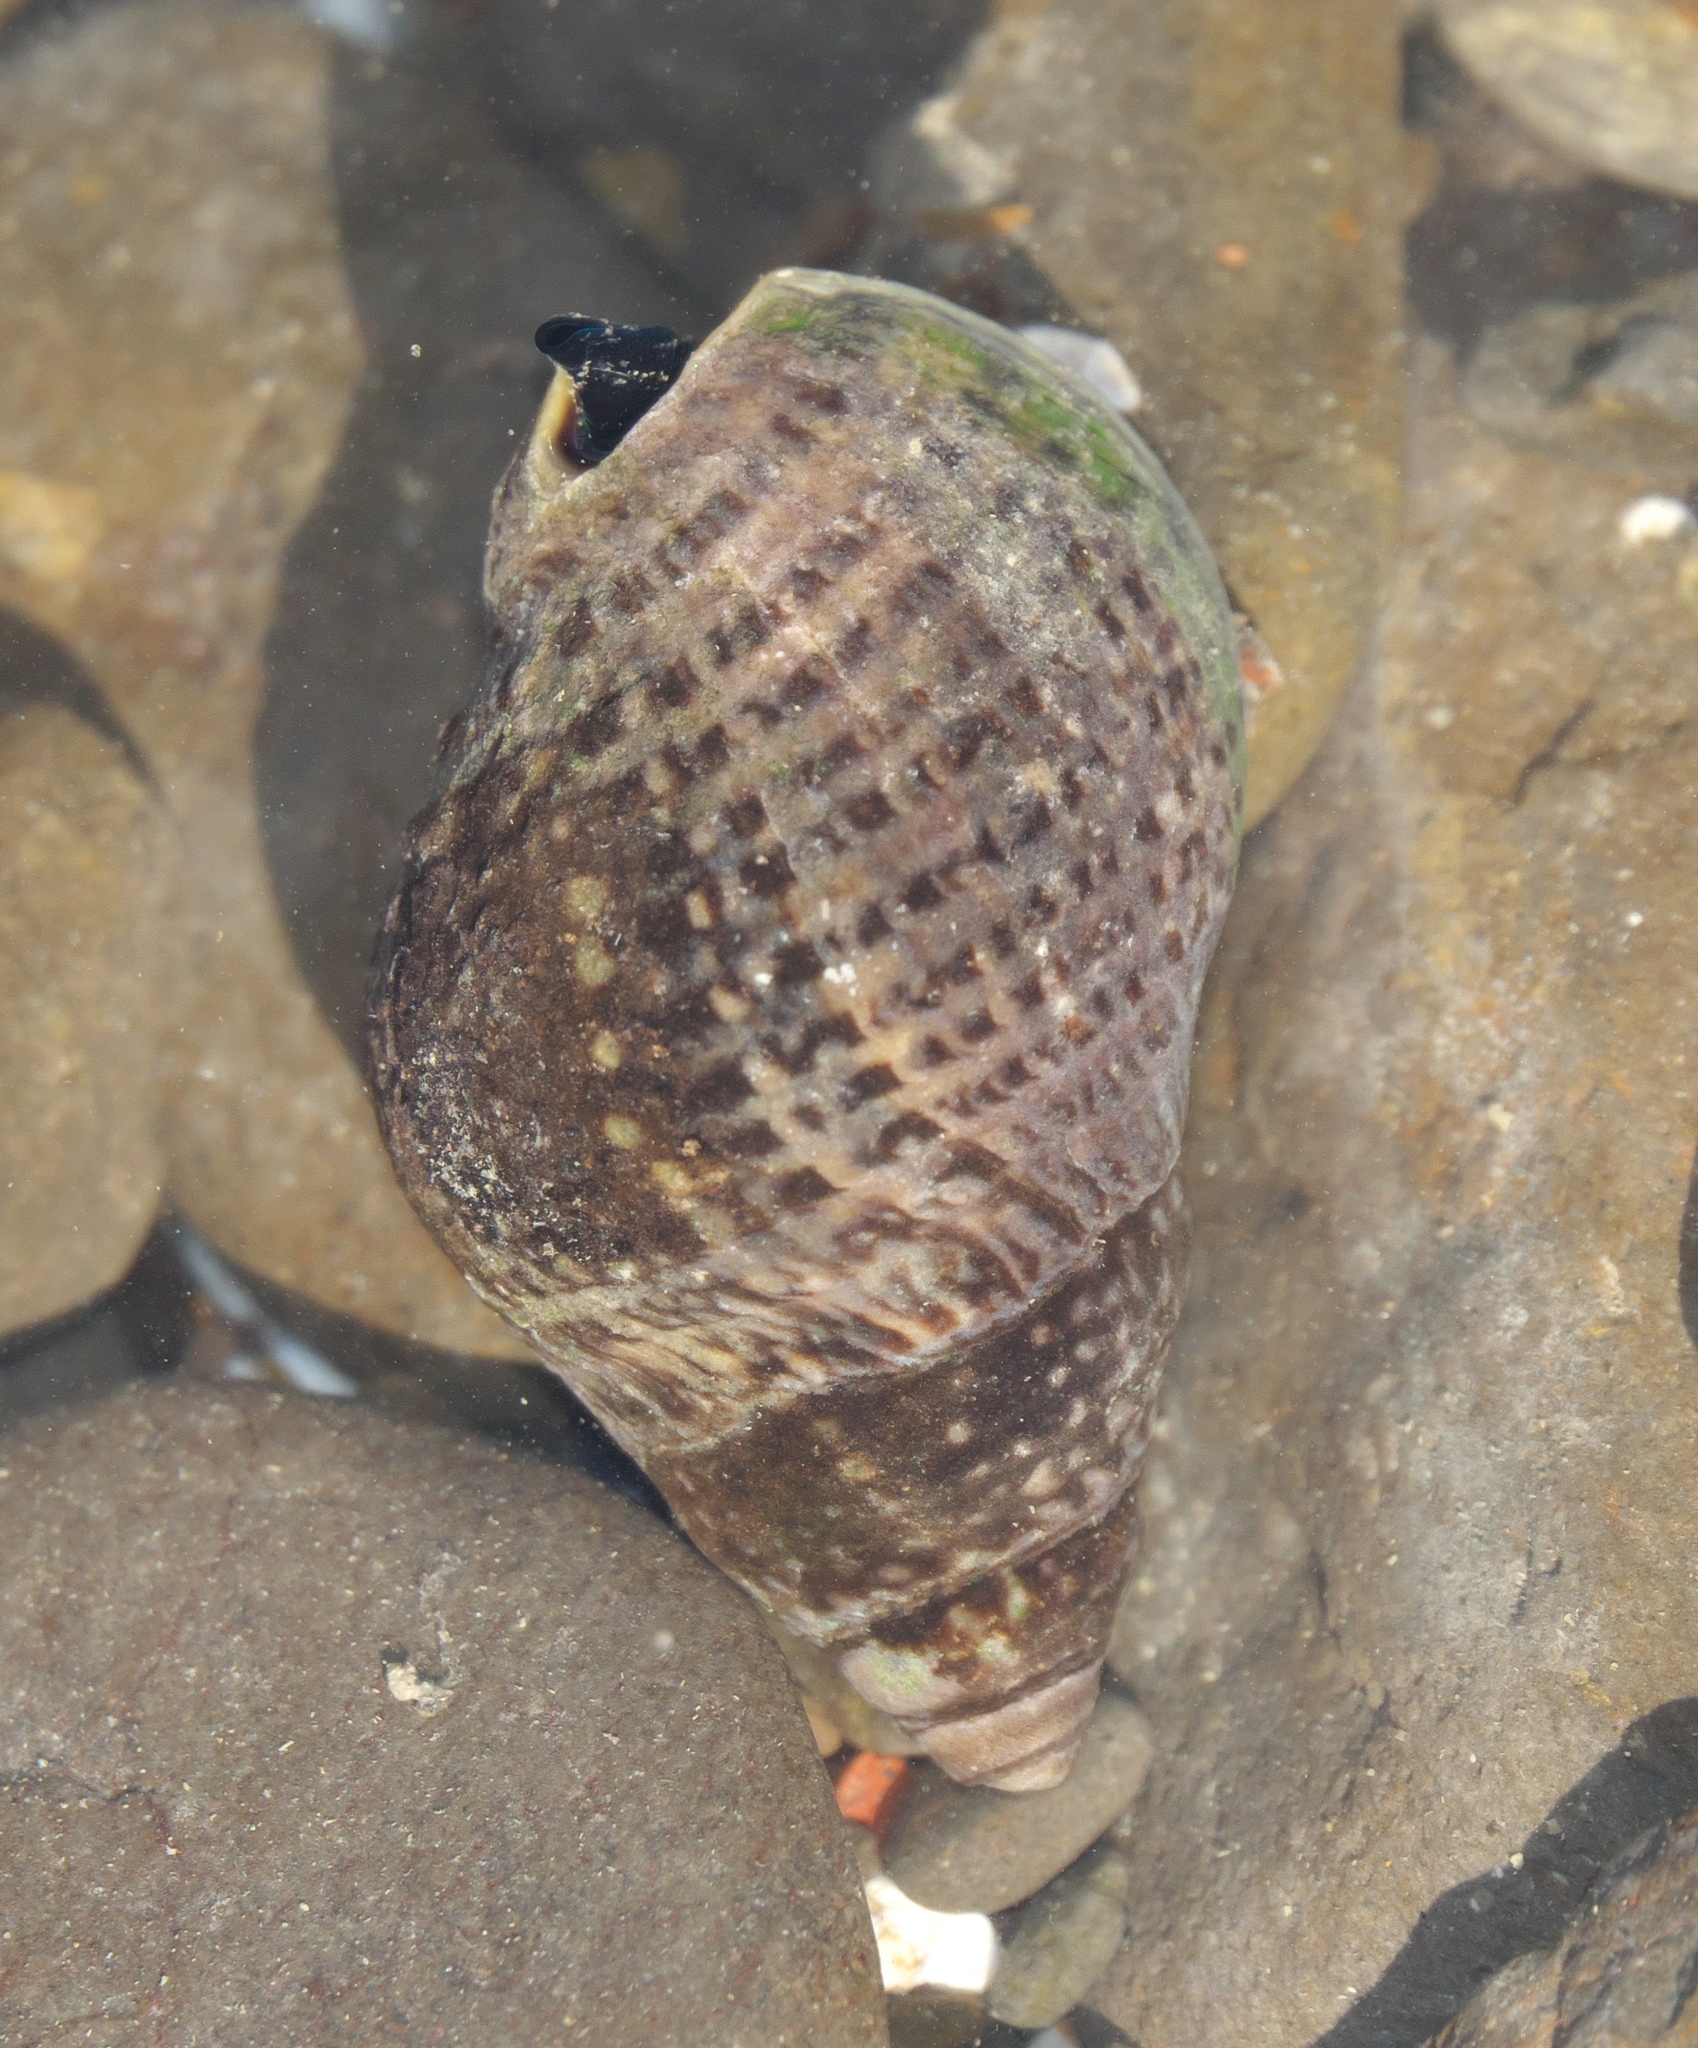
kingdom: Animalia
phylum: Mollusca
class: Gastropoda
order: Neogastropoda
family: Cominellidae
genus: Cominella
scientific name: Cominella maculosa
